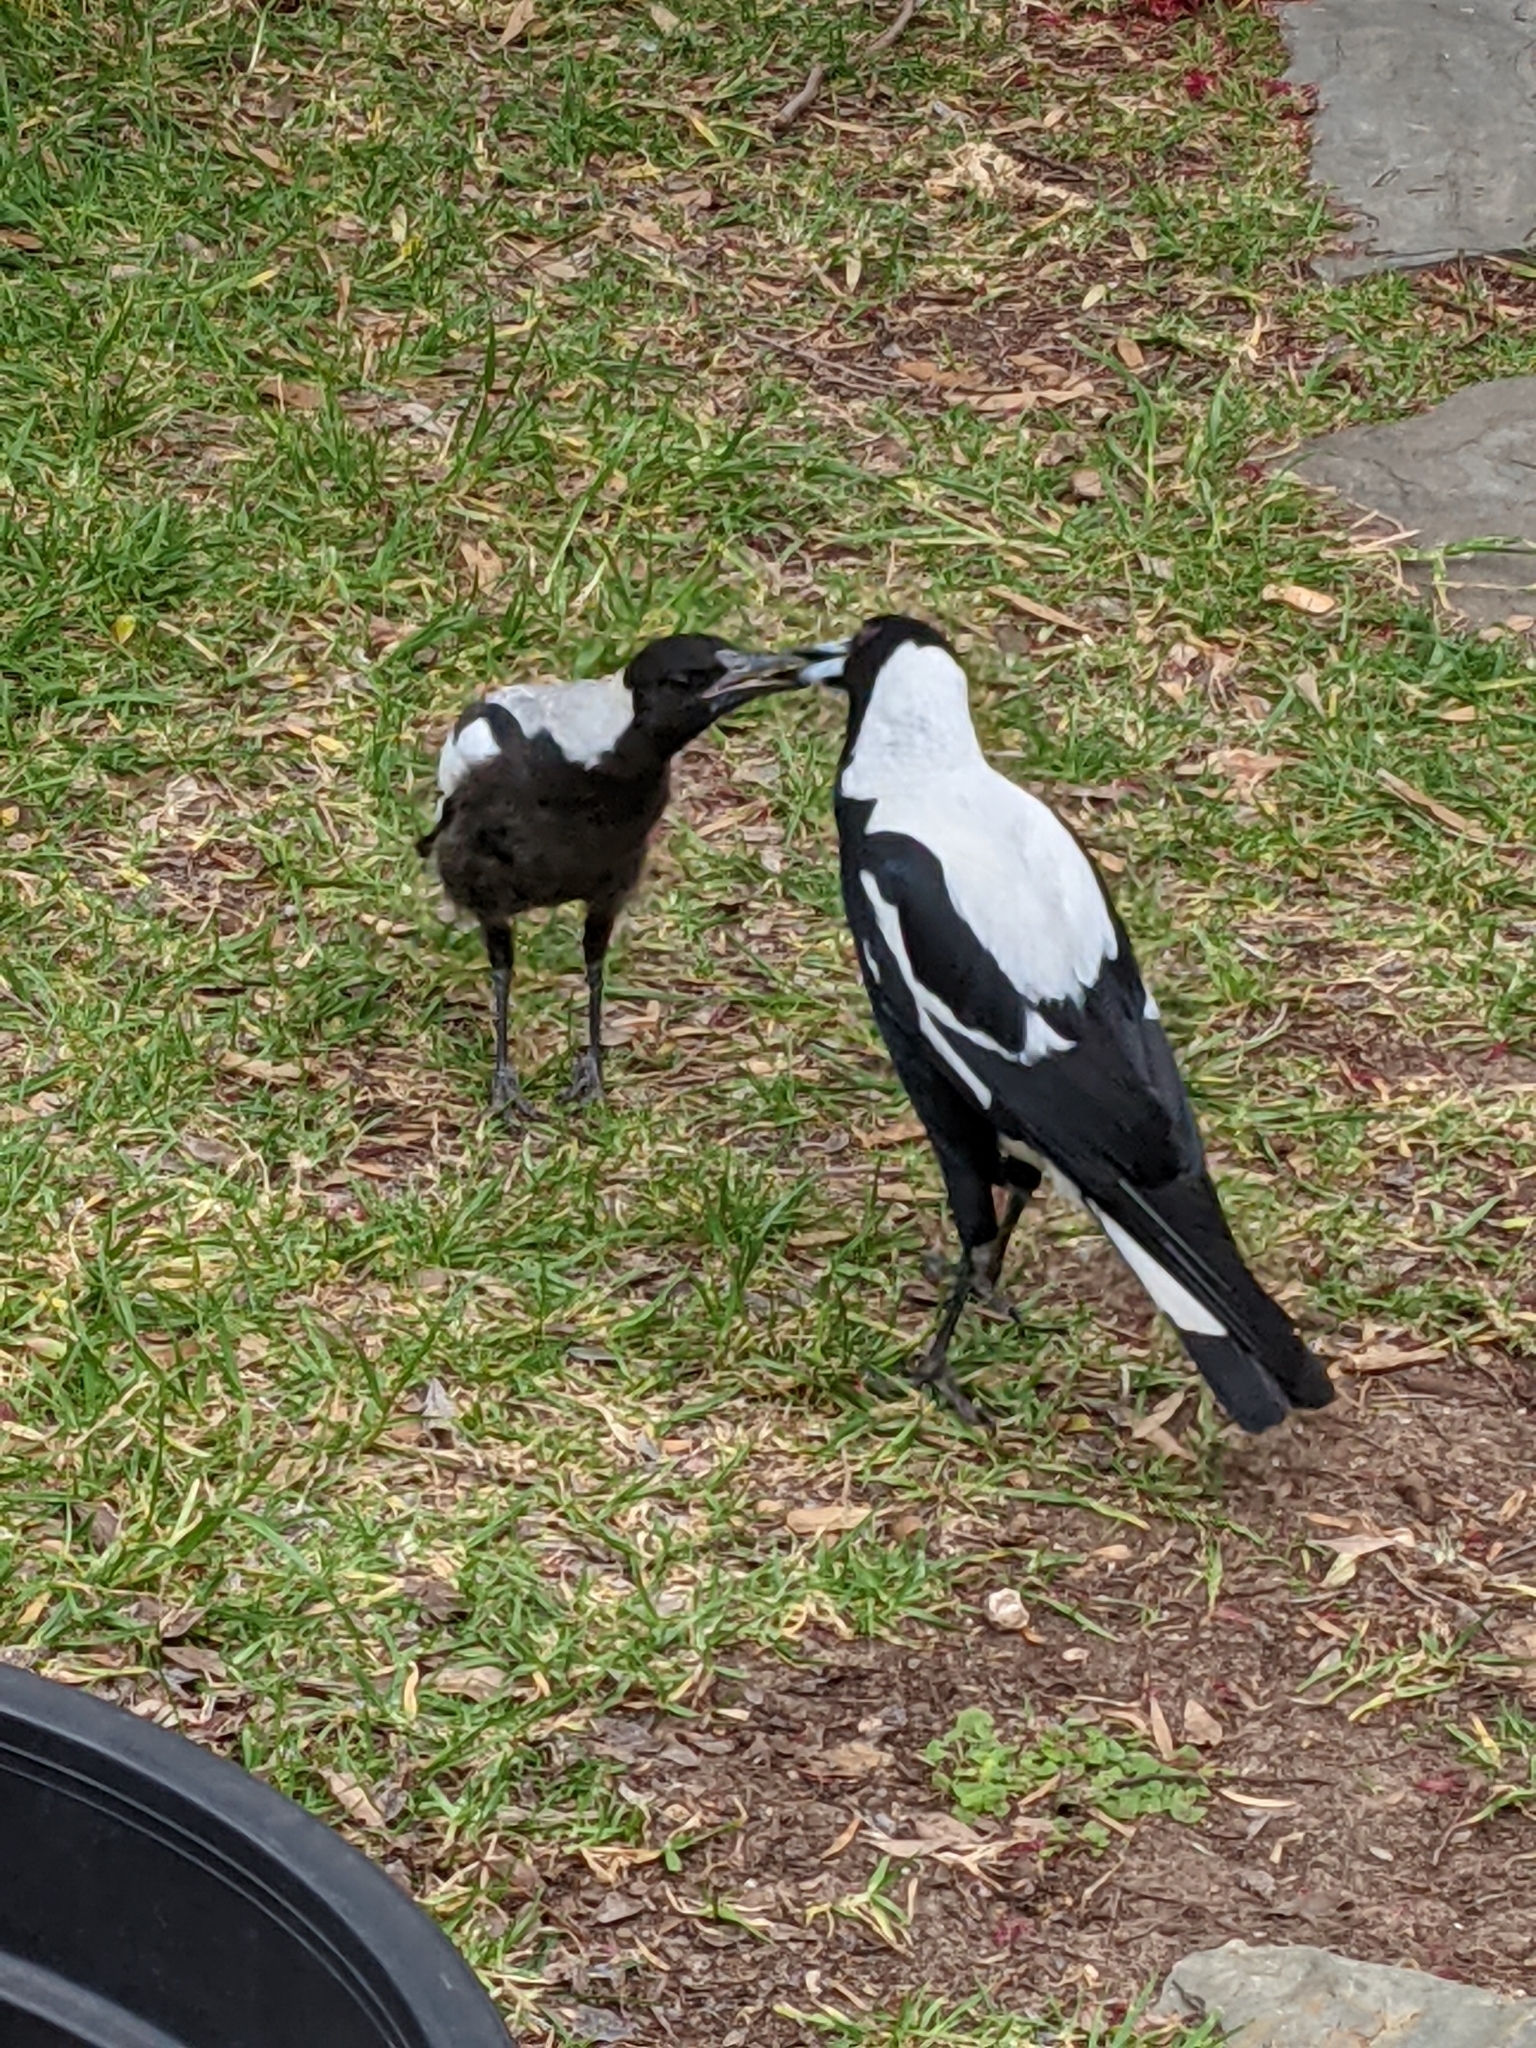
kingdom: Animalia
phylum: Chordata
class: Aves
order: Passeriformes
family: Cracticidae
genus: Gymnorhina
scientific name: Gymnorhina tibicen
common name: Australian magpie
